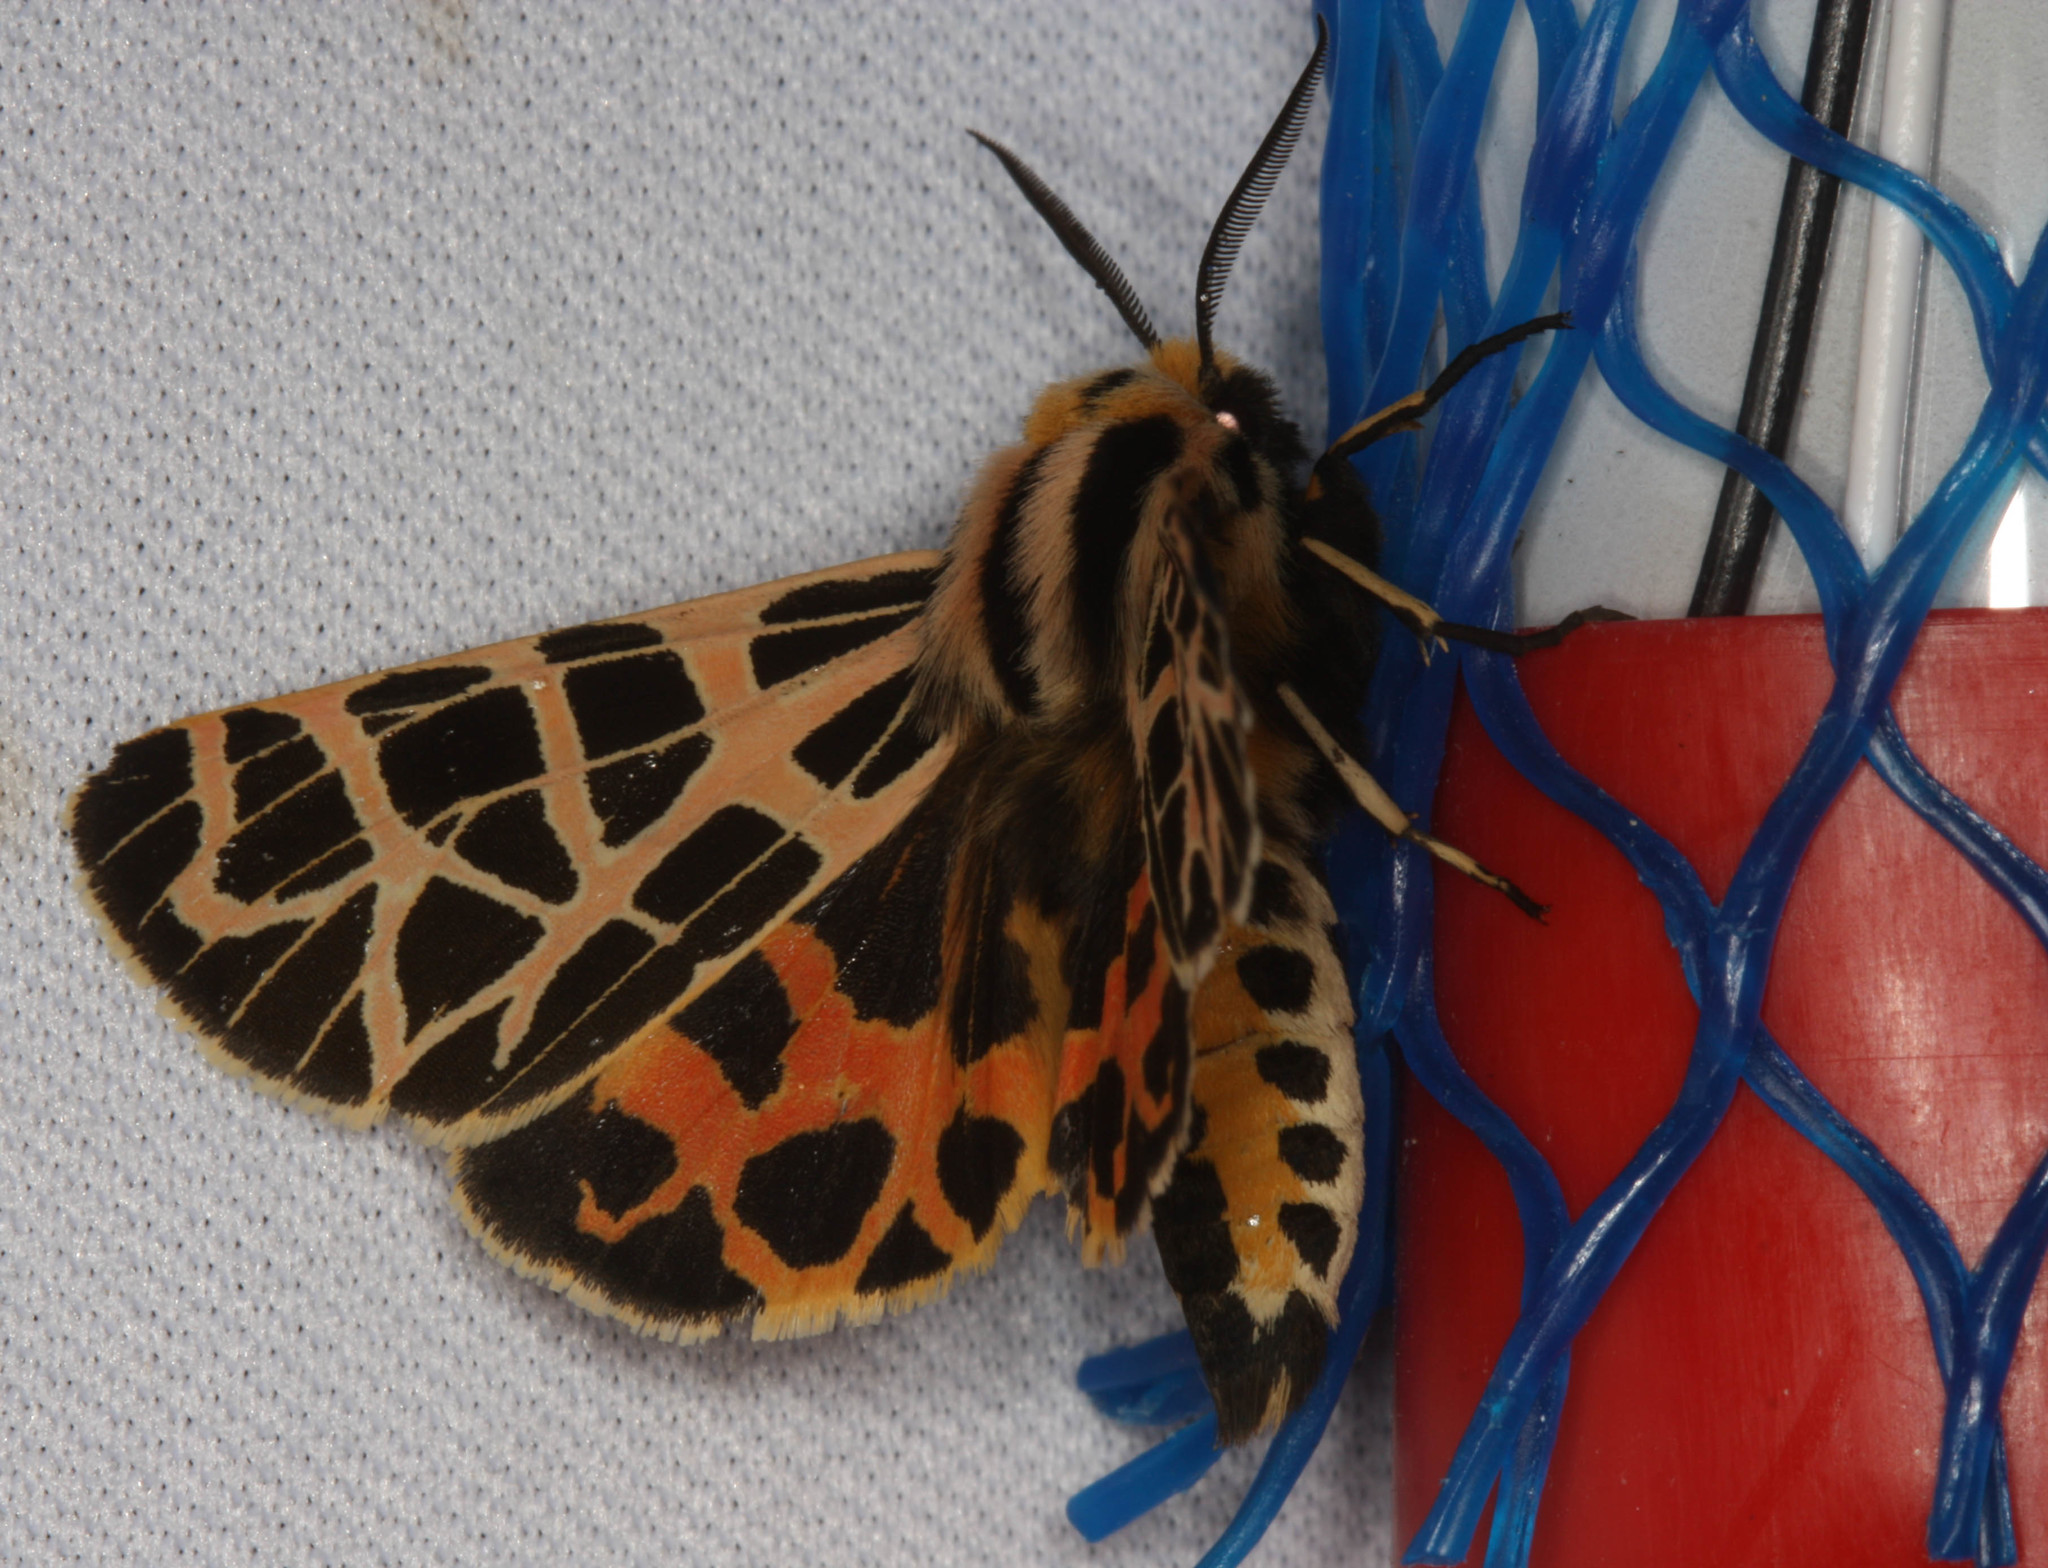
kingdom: Animalia
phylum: Arthropoda
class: Insecta
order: Lepidoptera
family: Erebidae
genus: Apantesis
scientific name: Apantesis
